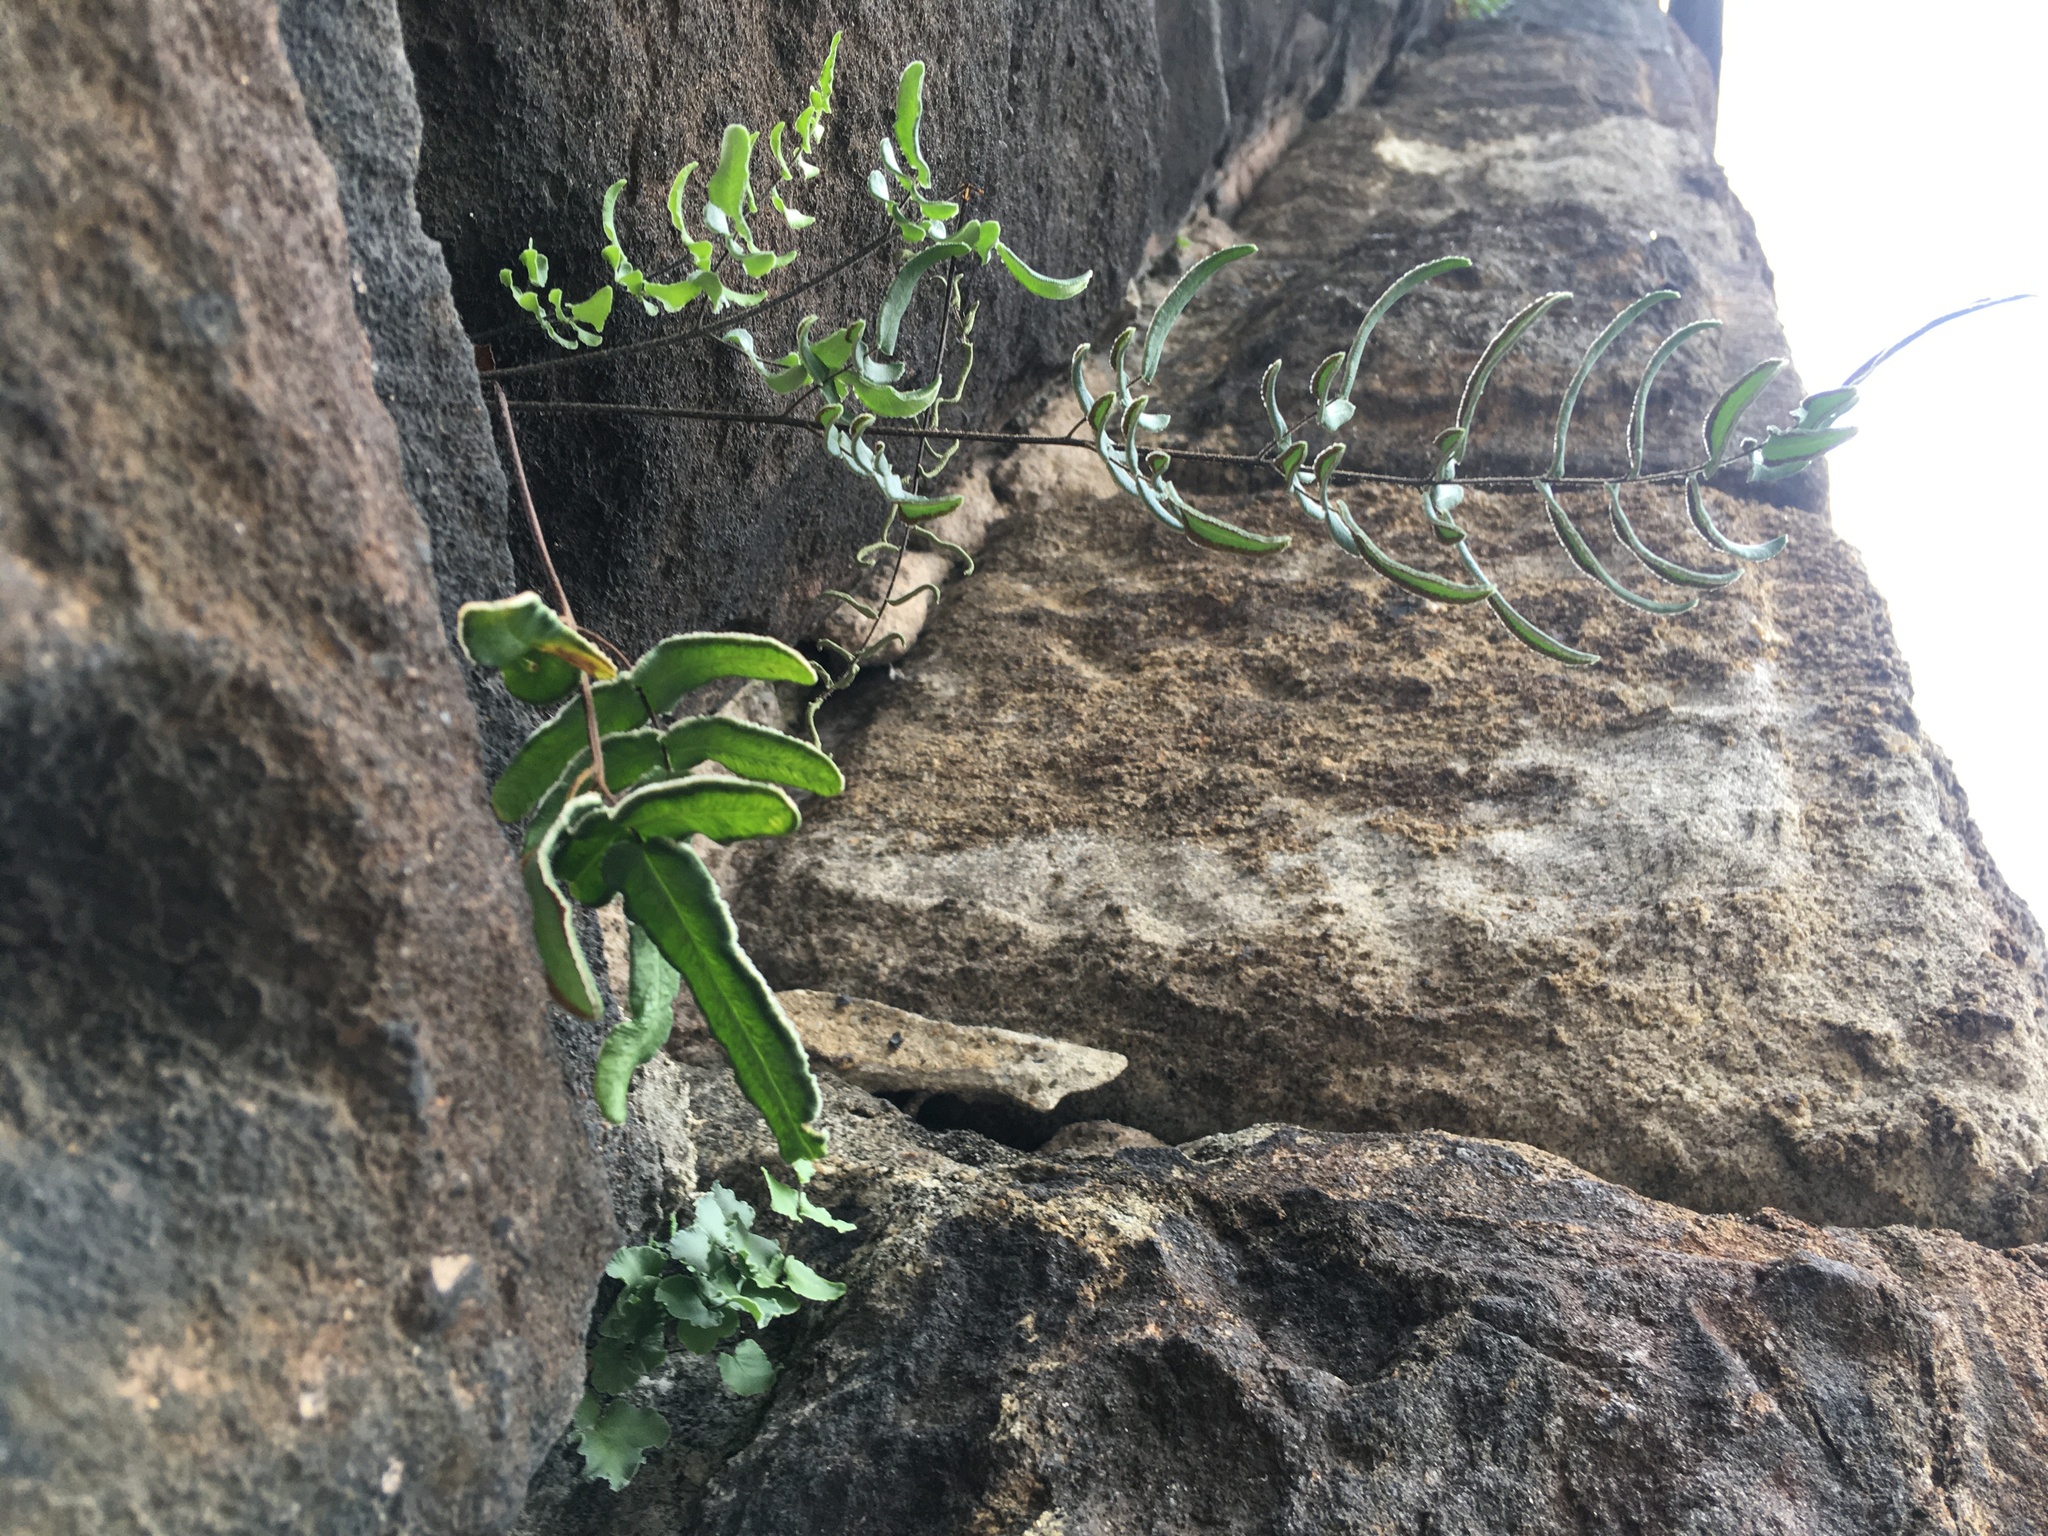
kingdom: Plantae
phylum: Tracheophyta
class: Polypodiopsida
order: Polypodiales
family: Pteridaceae
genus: Pellaea
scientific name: Pellaea atropurpurea
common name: Hairy cliffbrake
